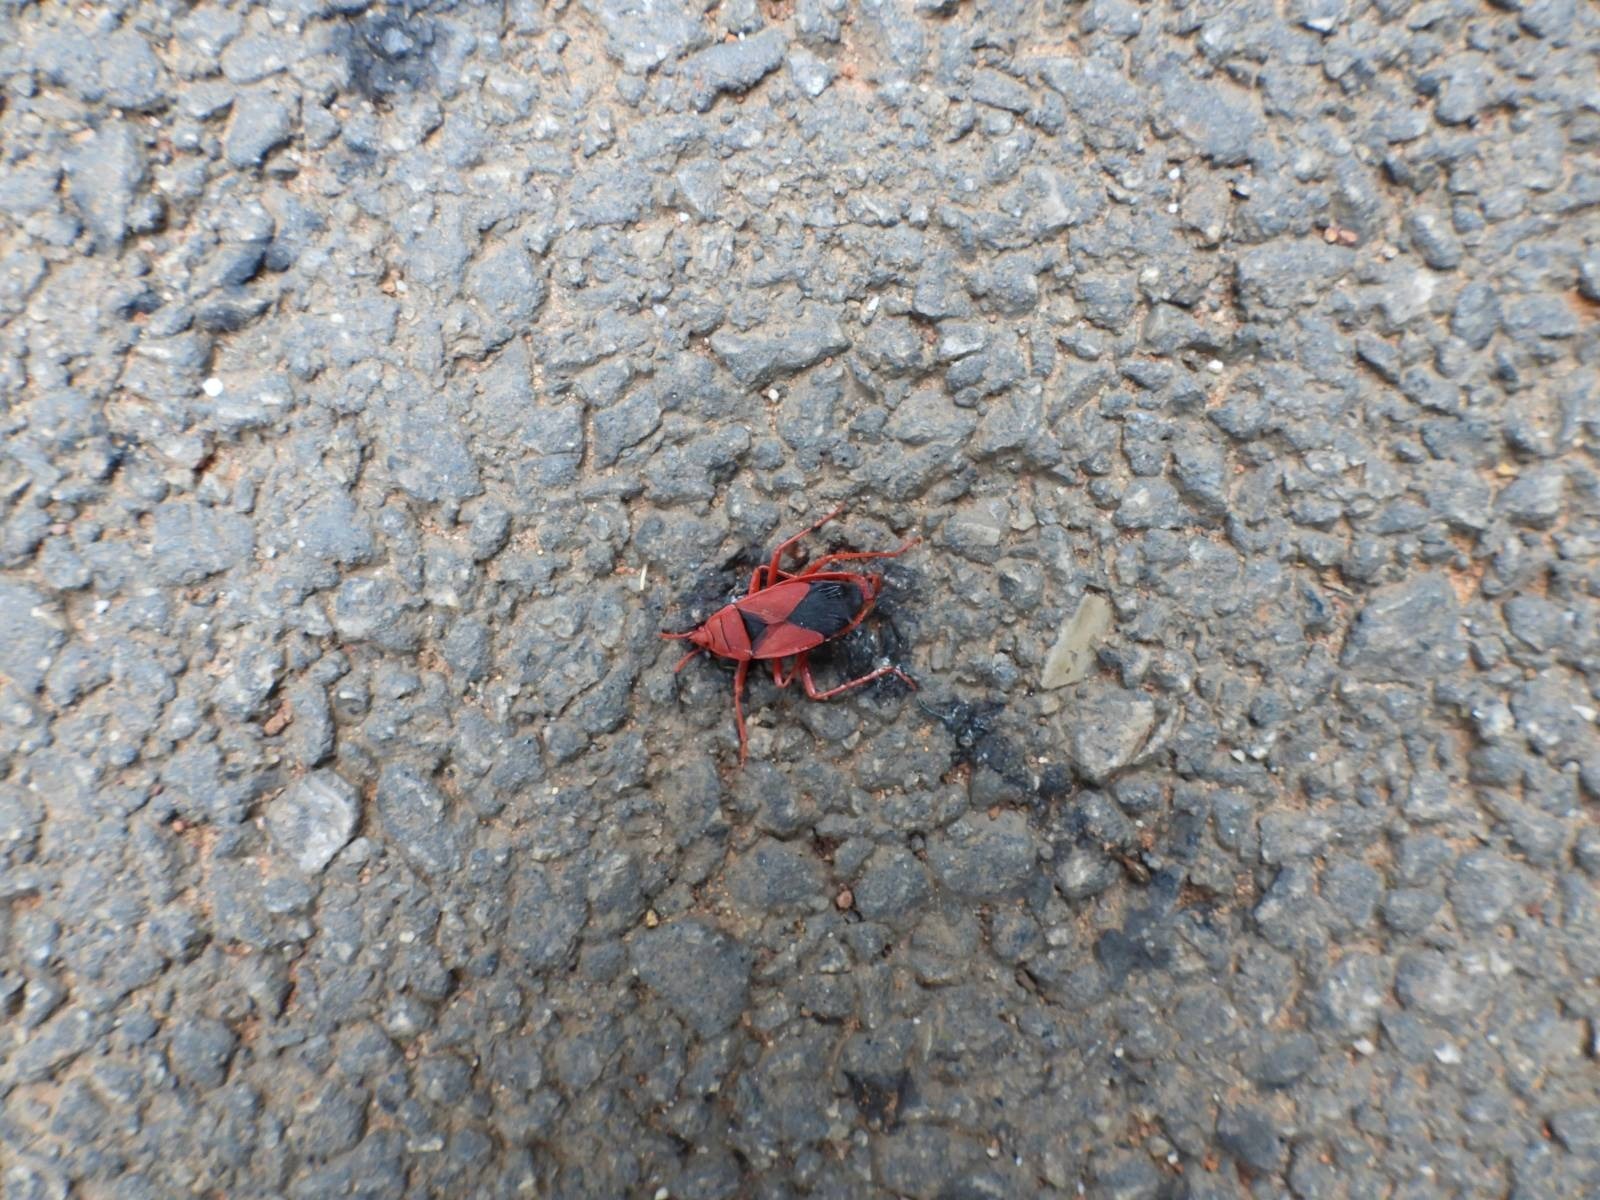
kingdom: Animalia
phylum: Arthropoda
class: Insecta
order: Hemiptera
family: Pyrrhocoridae
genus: Probergrothius
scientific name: Probergrothius
